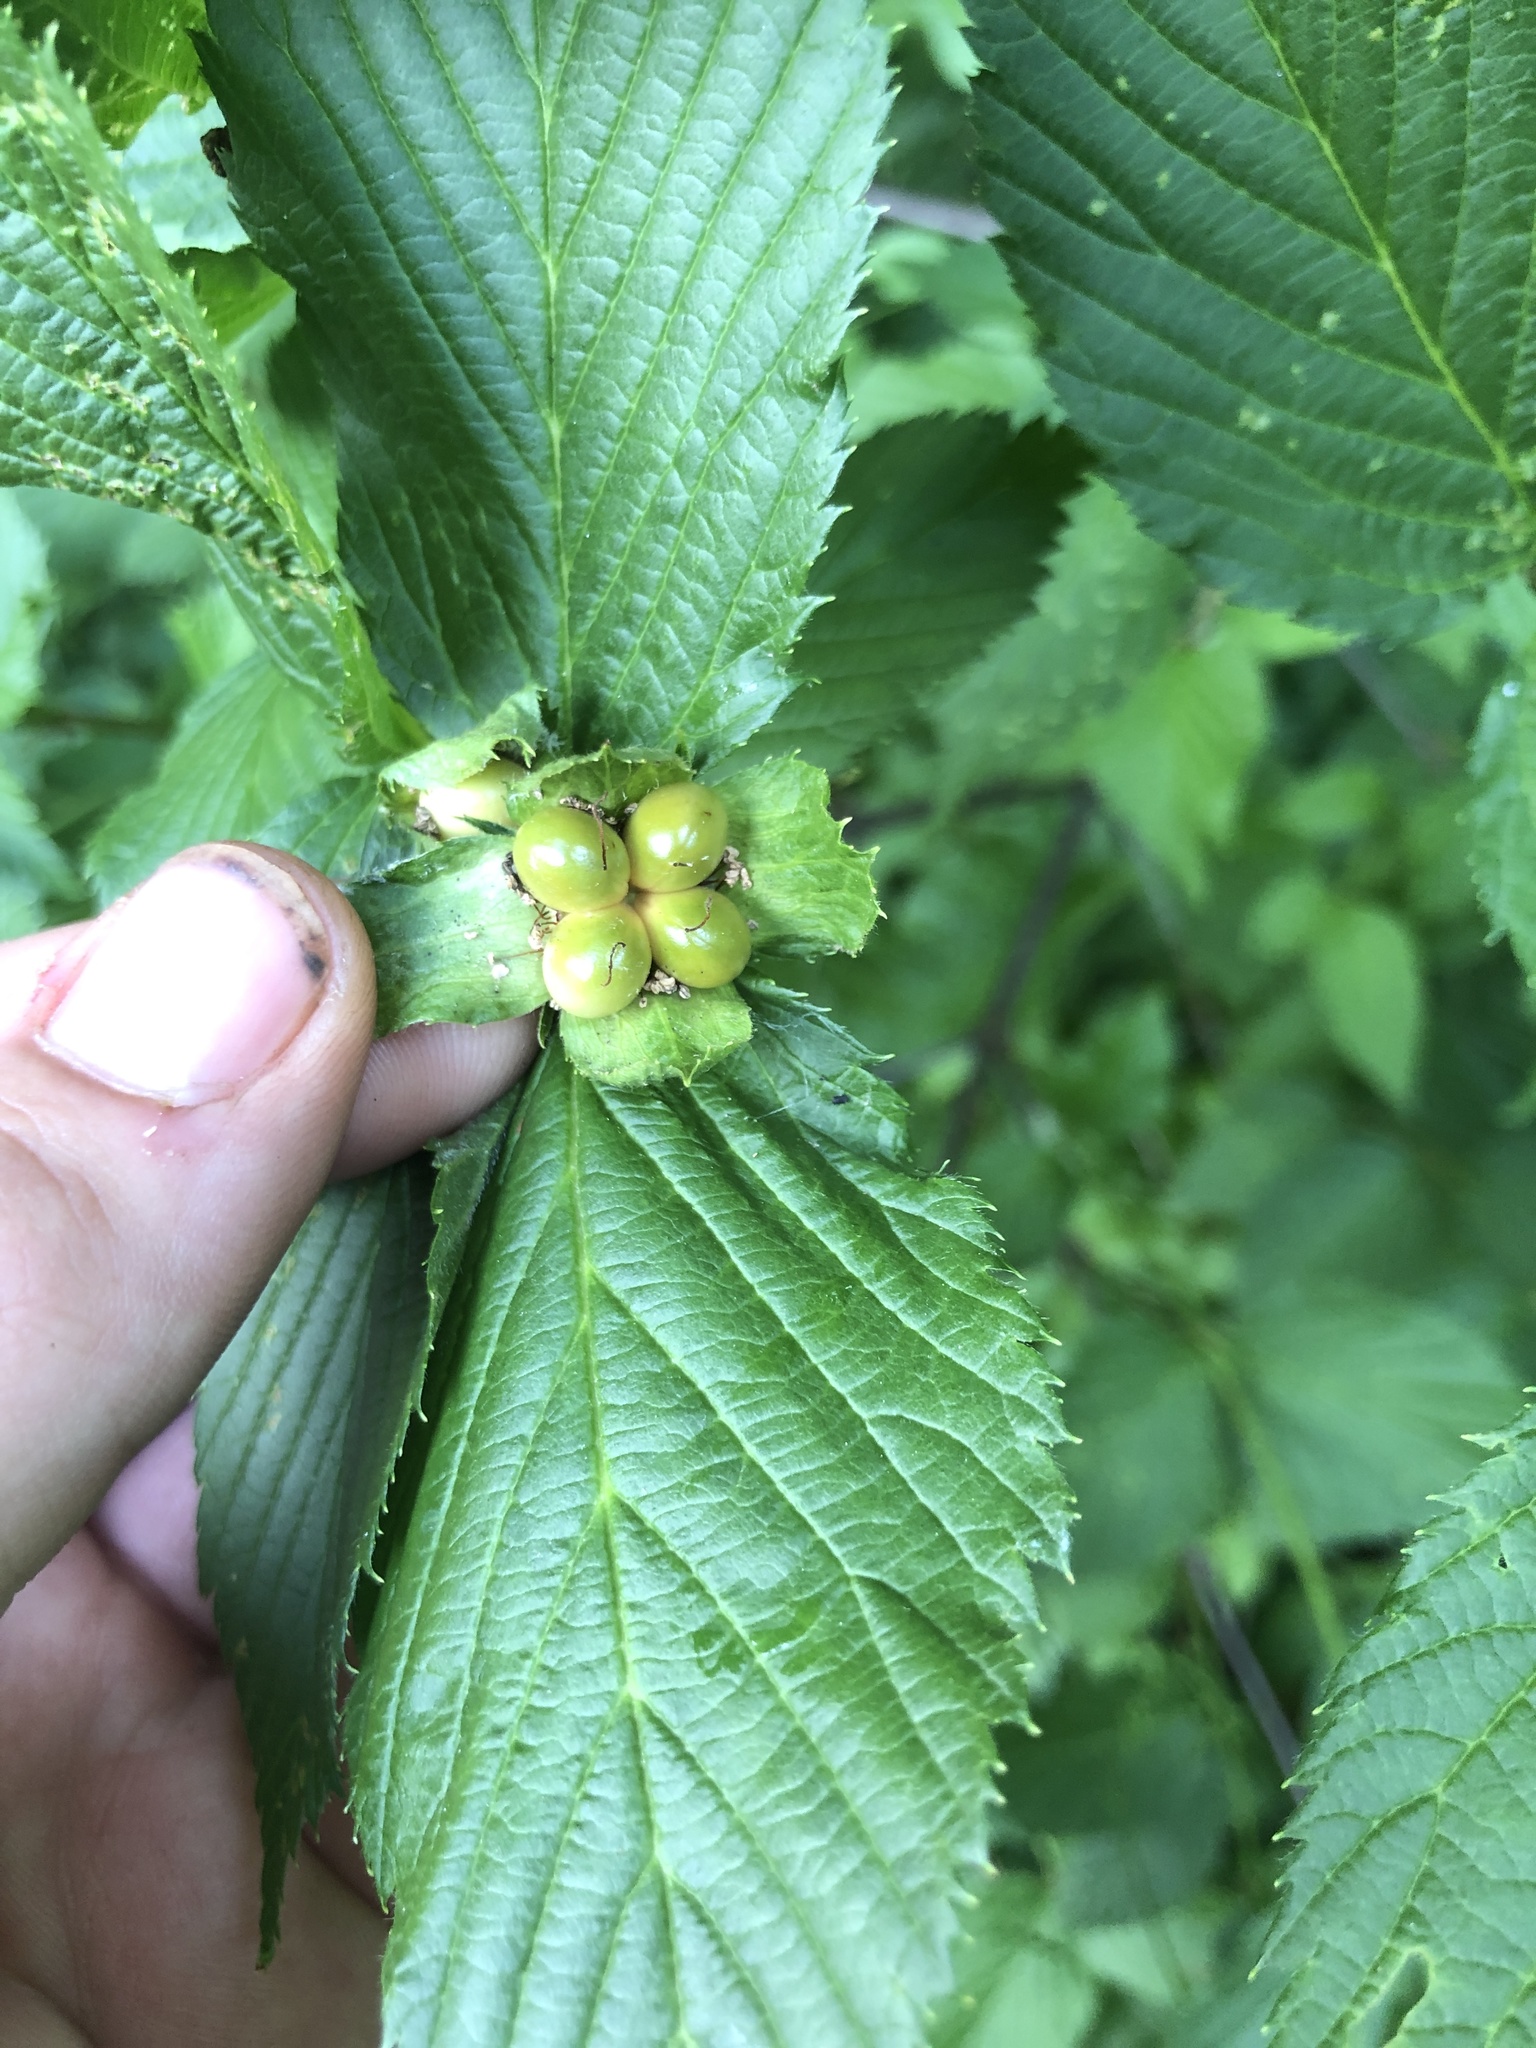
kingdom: Plantae
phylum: Tracheophyta
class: Magnoliopsida
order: Rosales
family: Rosaceae
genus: Rhodotypos
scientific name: Rhodotypos scandens
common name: Jetbead
